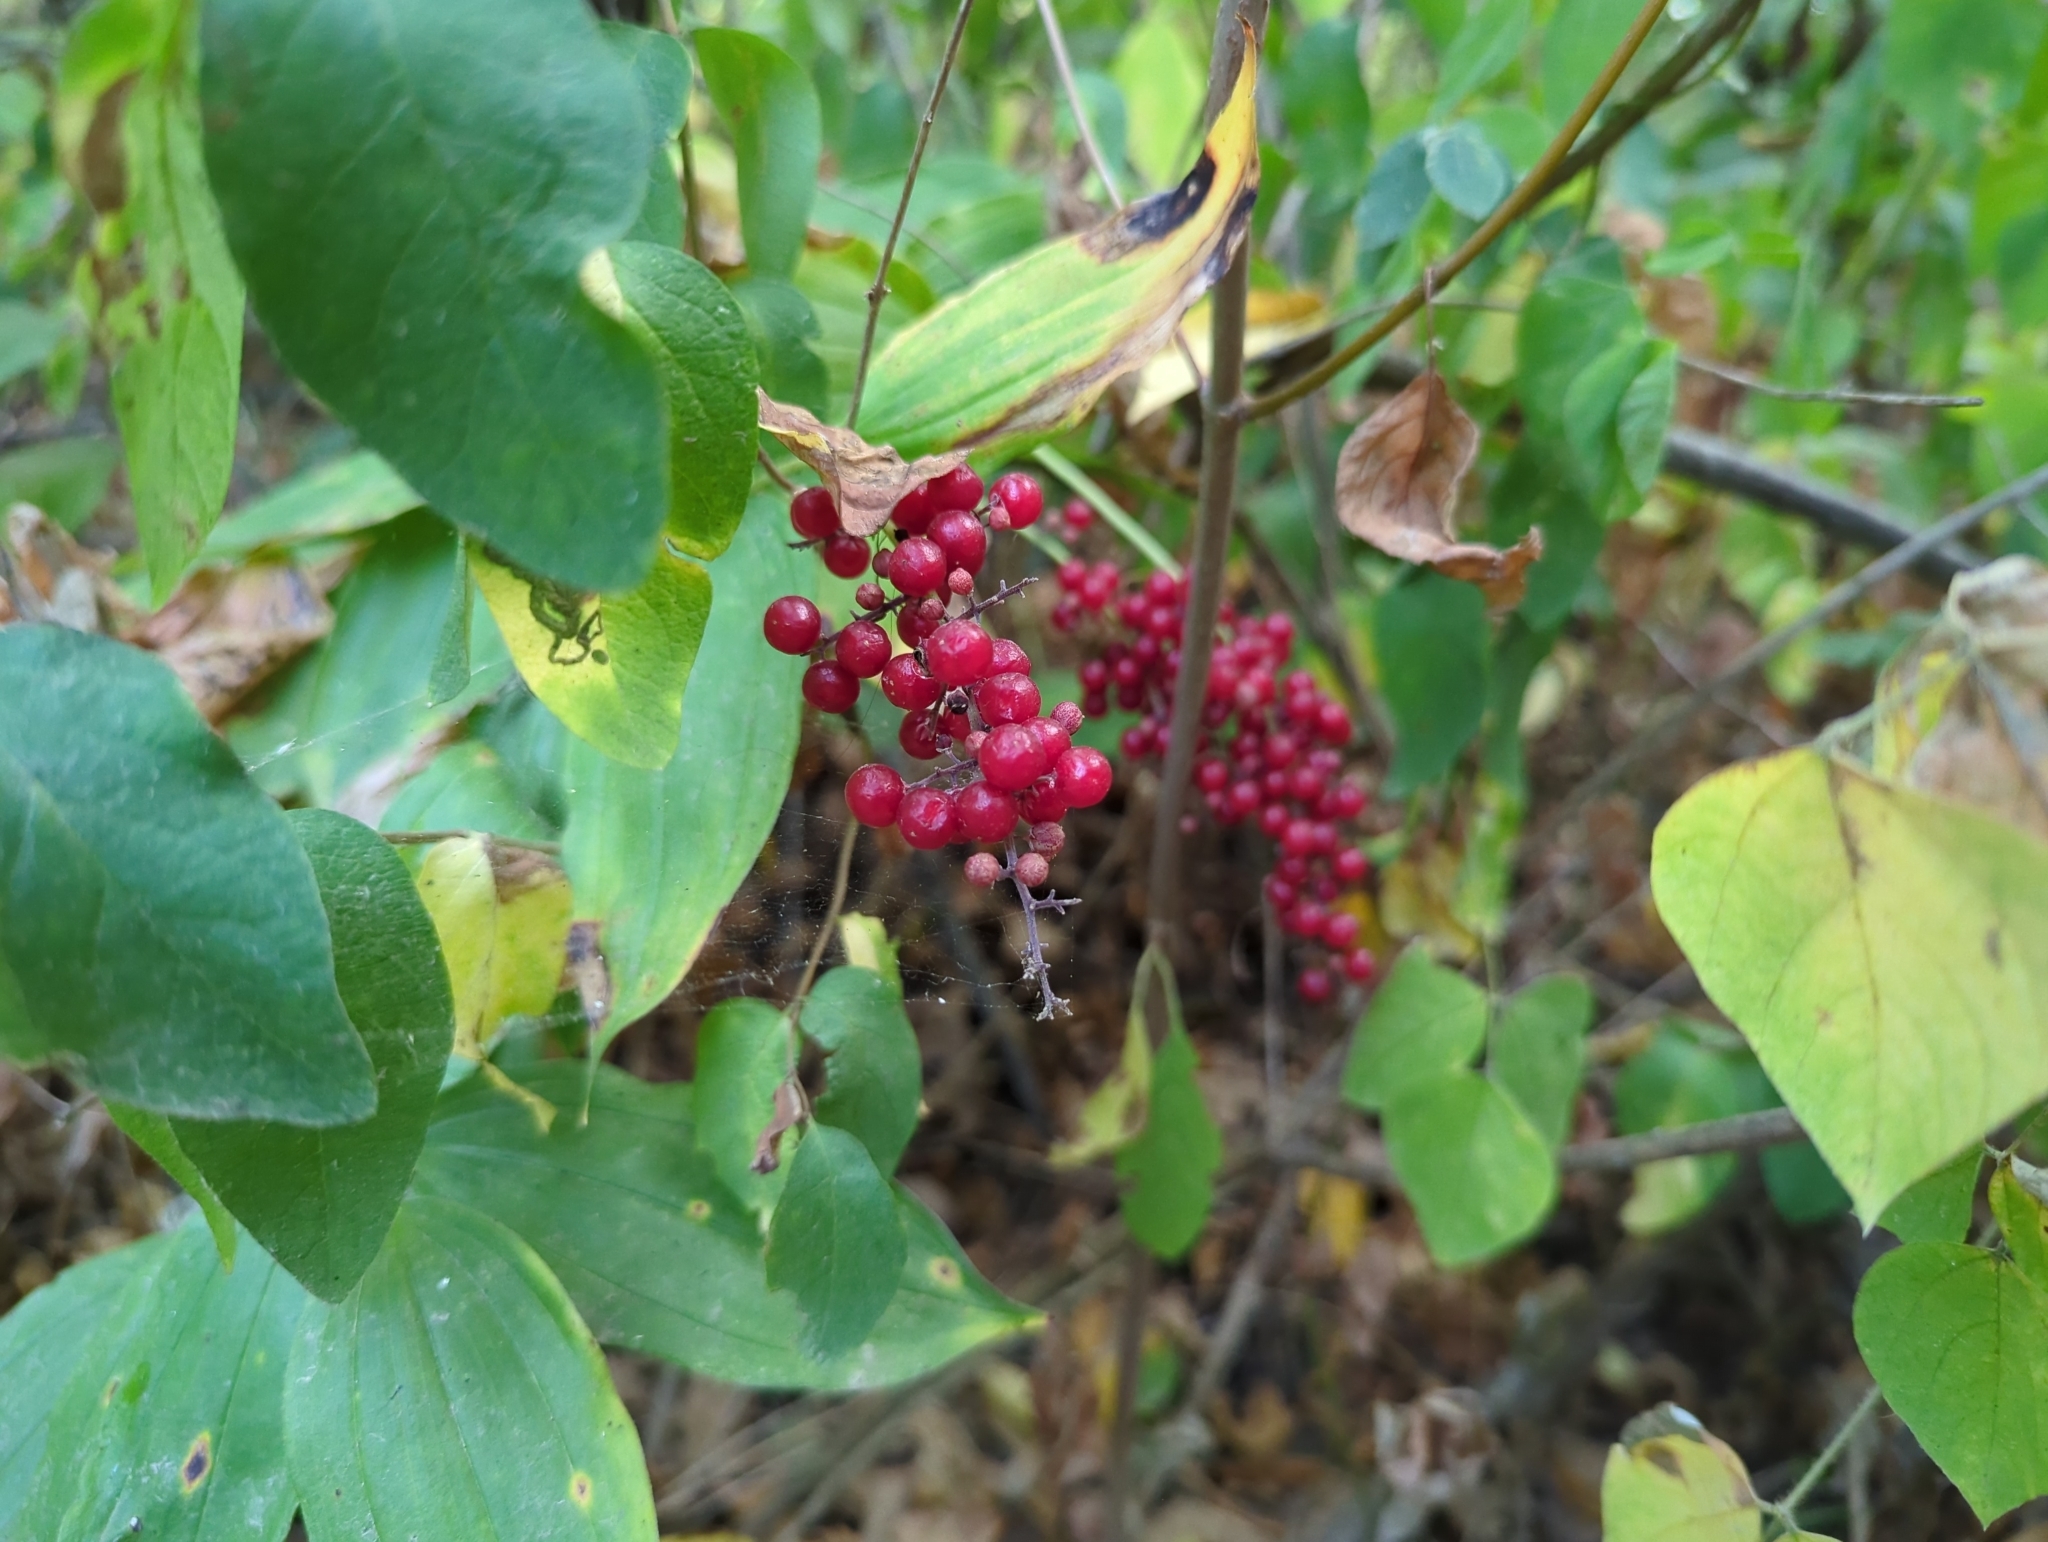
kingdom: Plantae
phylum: Tracheophyta
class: Liliopsida
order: Asparagales
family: Asparagaceae
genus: Maianthemum
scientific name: Maianthemum racemosum
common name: False spikenard
